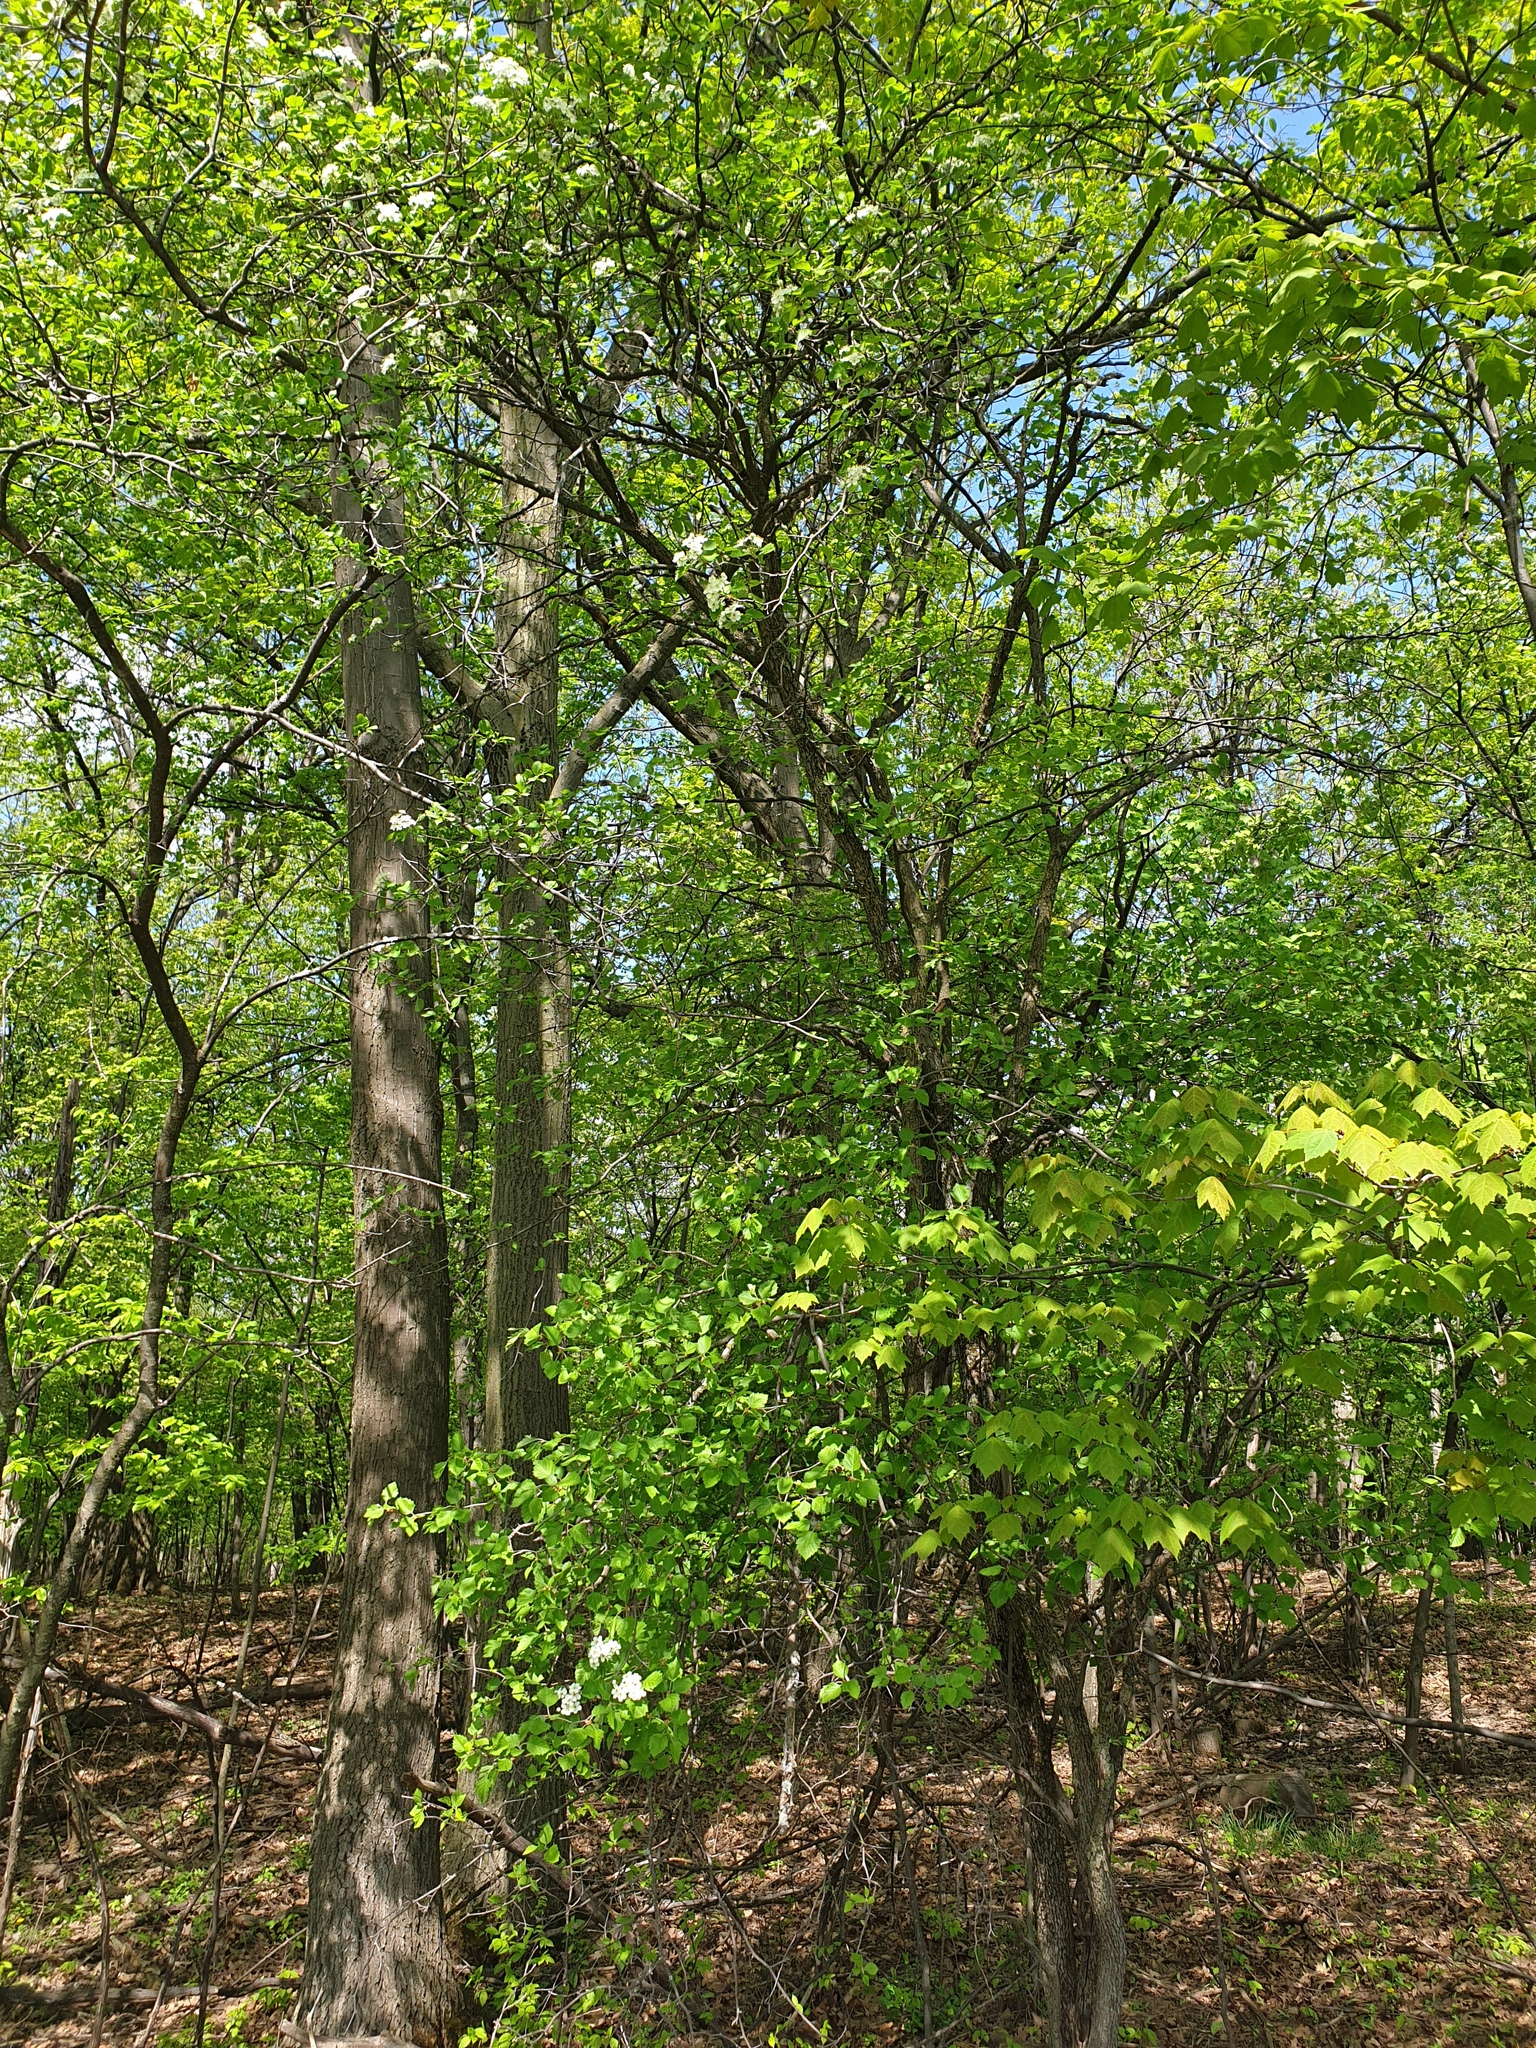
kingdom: Plantae
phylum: Tracheophyta
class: Magnoliopsida
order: Rosales
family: Rosaceae
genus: Crataegus
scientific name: Crataegus submollis
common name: Hairy cockspurthorn
